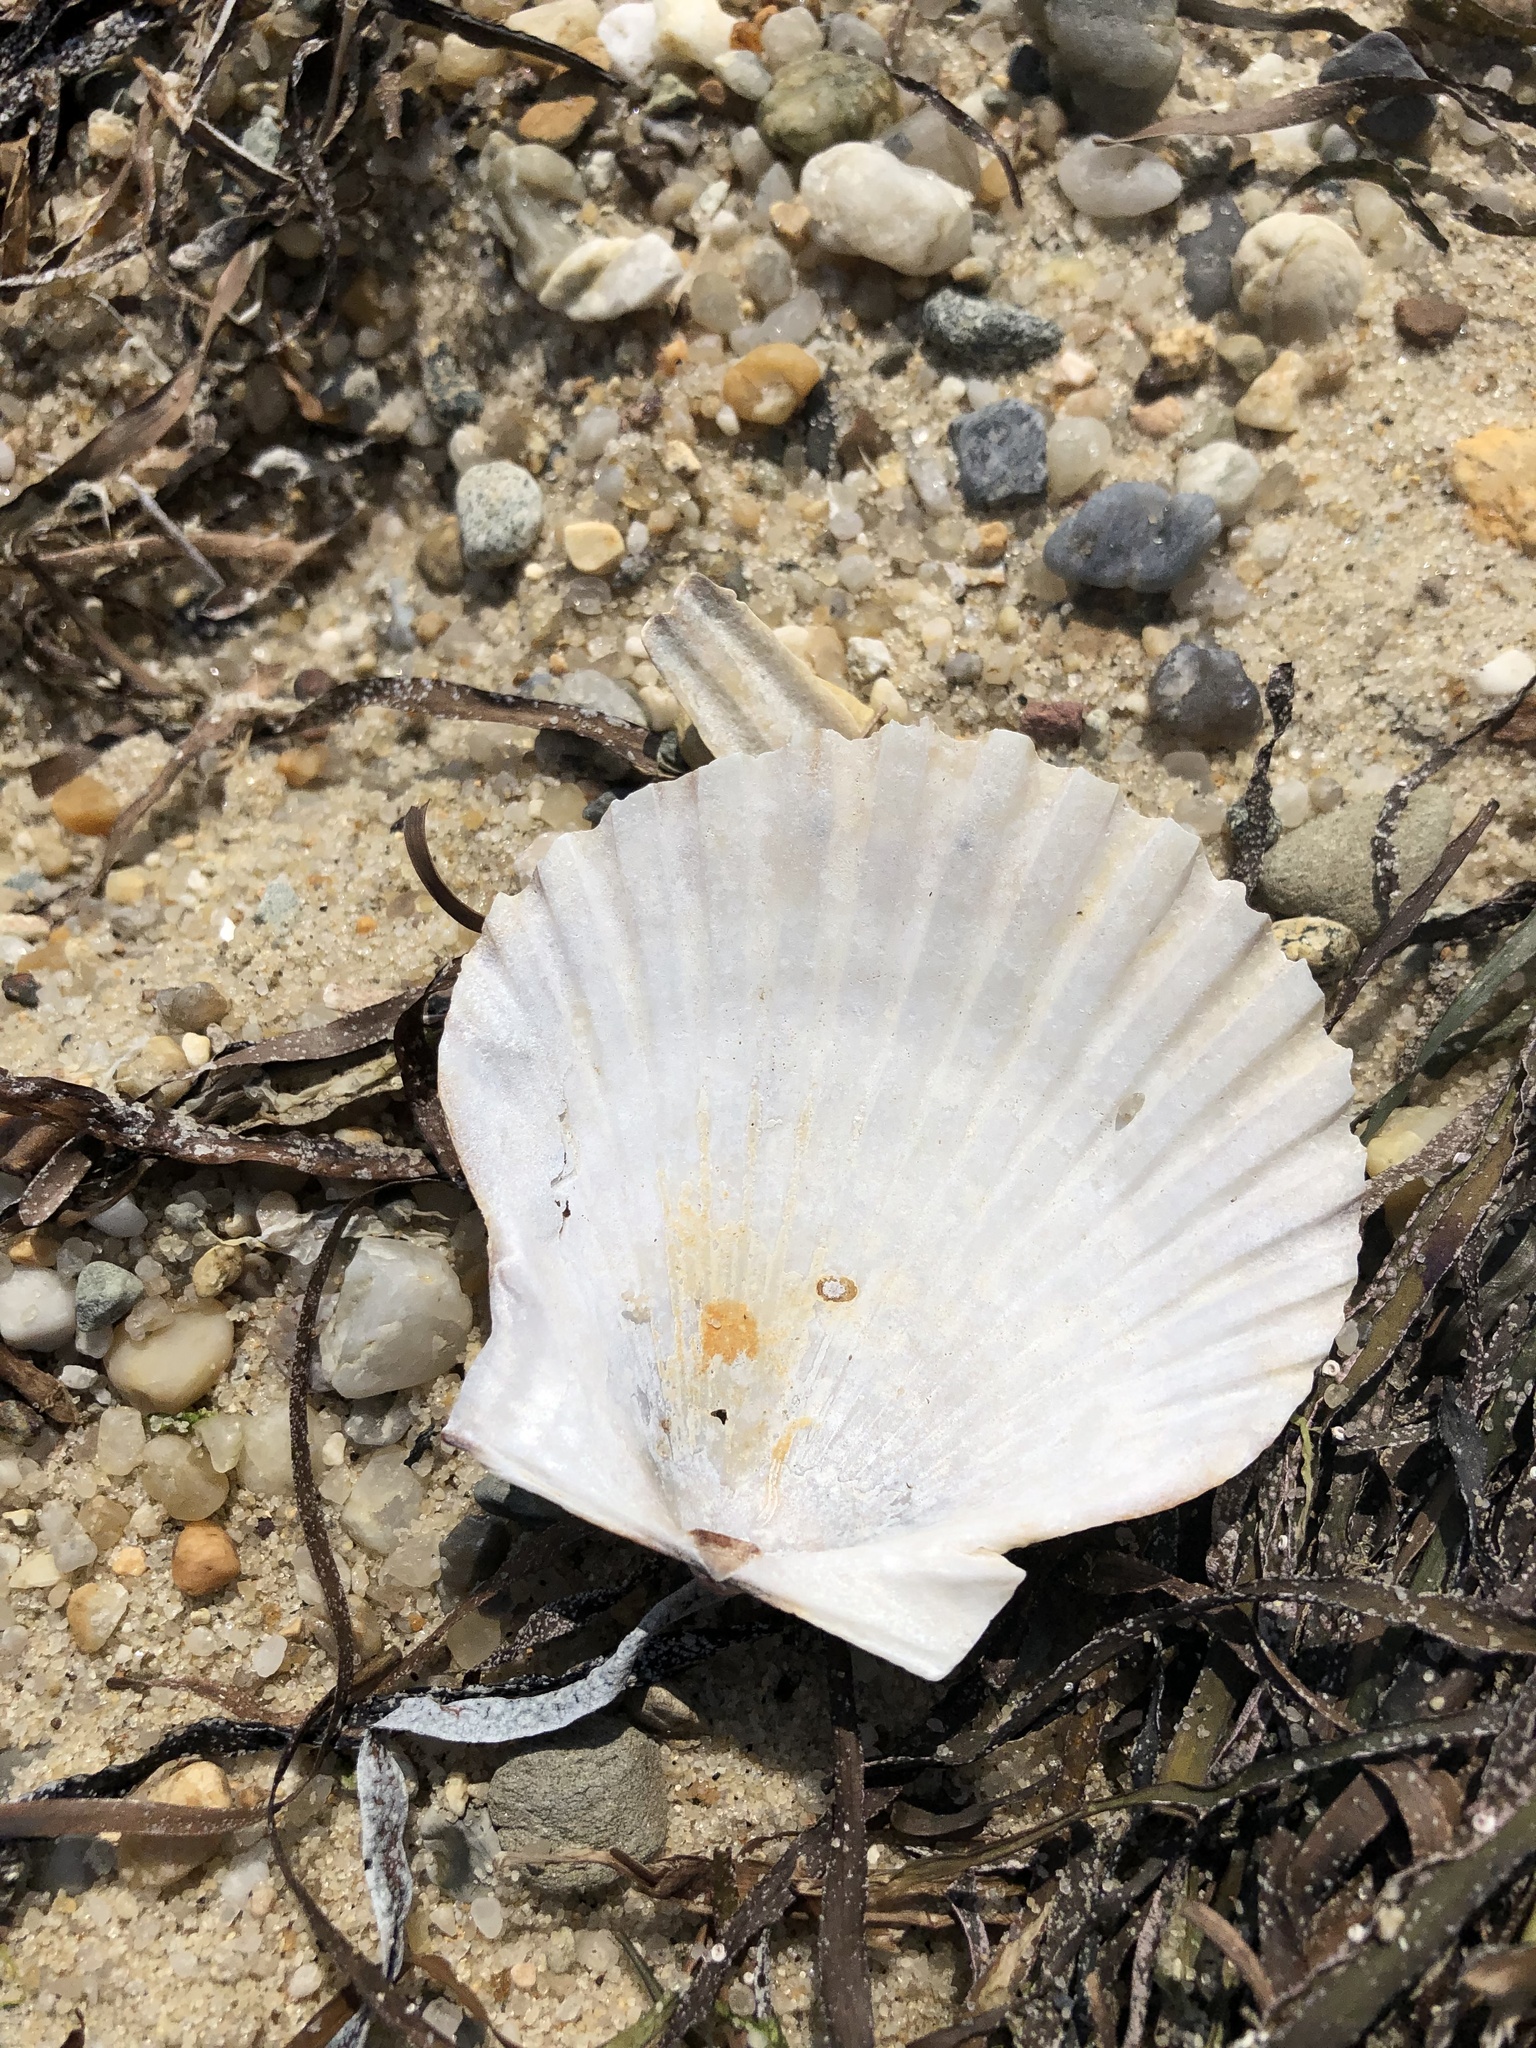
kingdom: Animalia
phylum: Mollusca
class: Bivalvia
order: Pectinida
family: Pectinidae
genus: Argopecten
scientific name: Argopecten irradians
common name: Atlantic bay scallop
